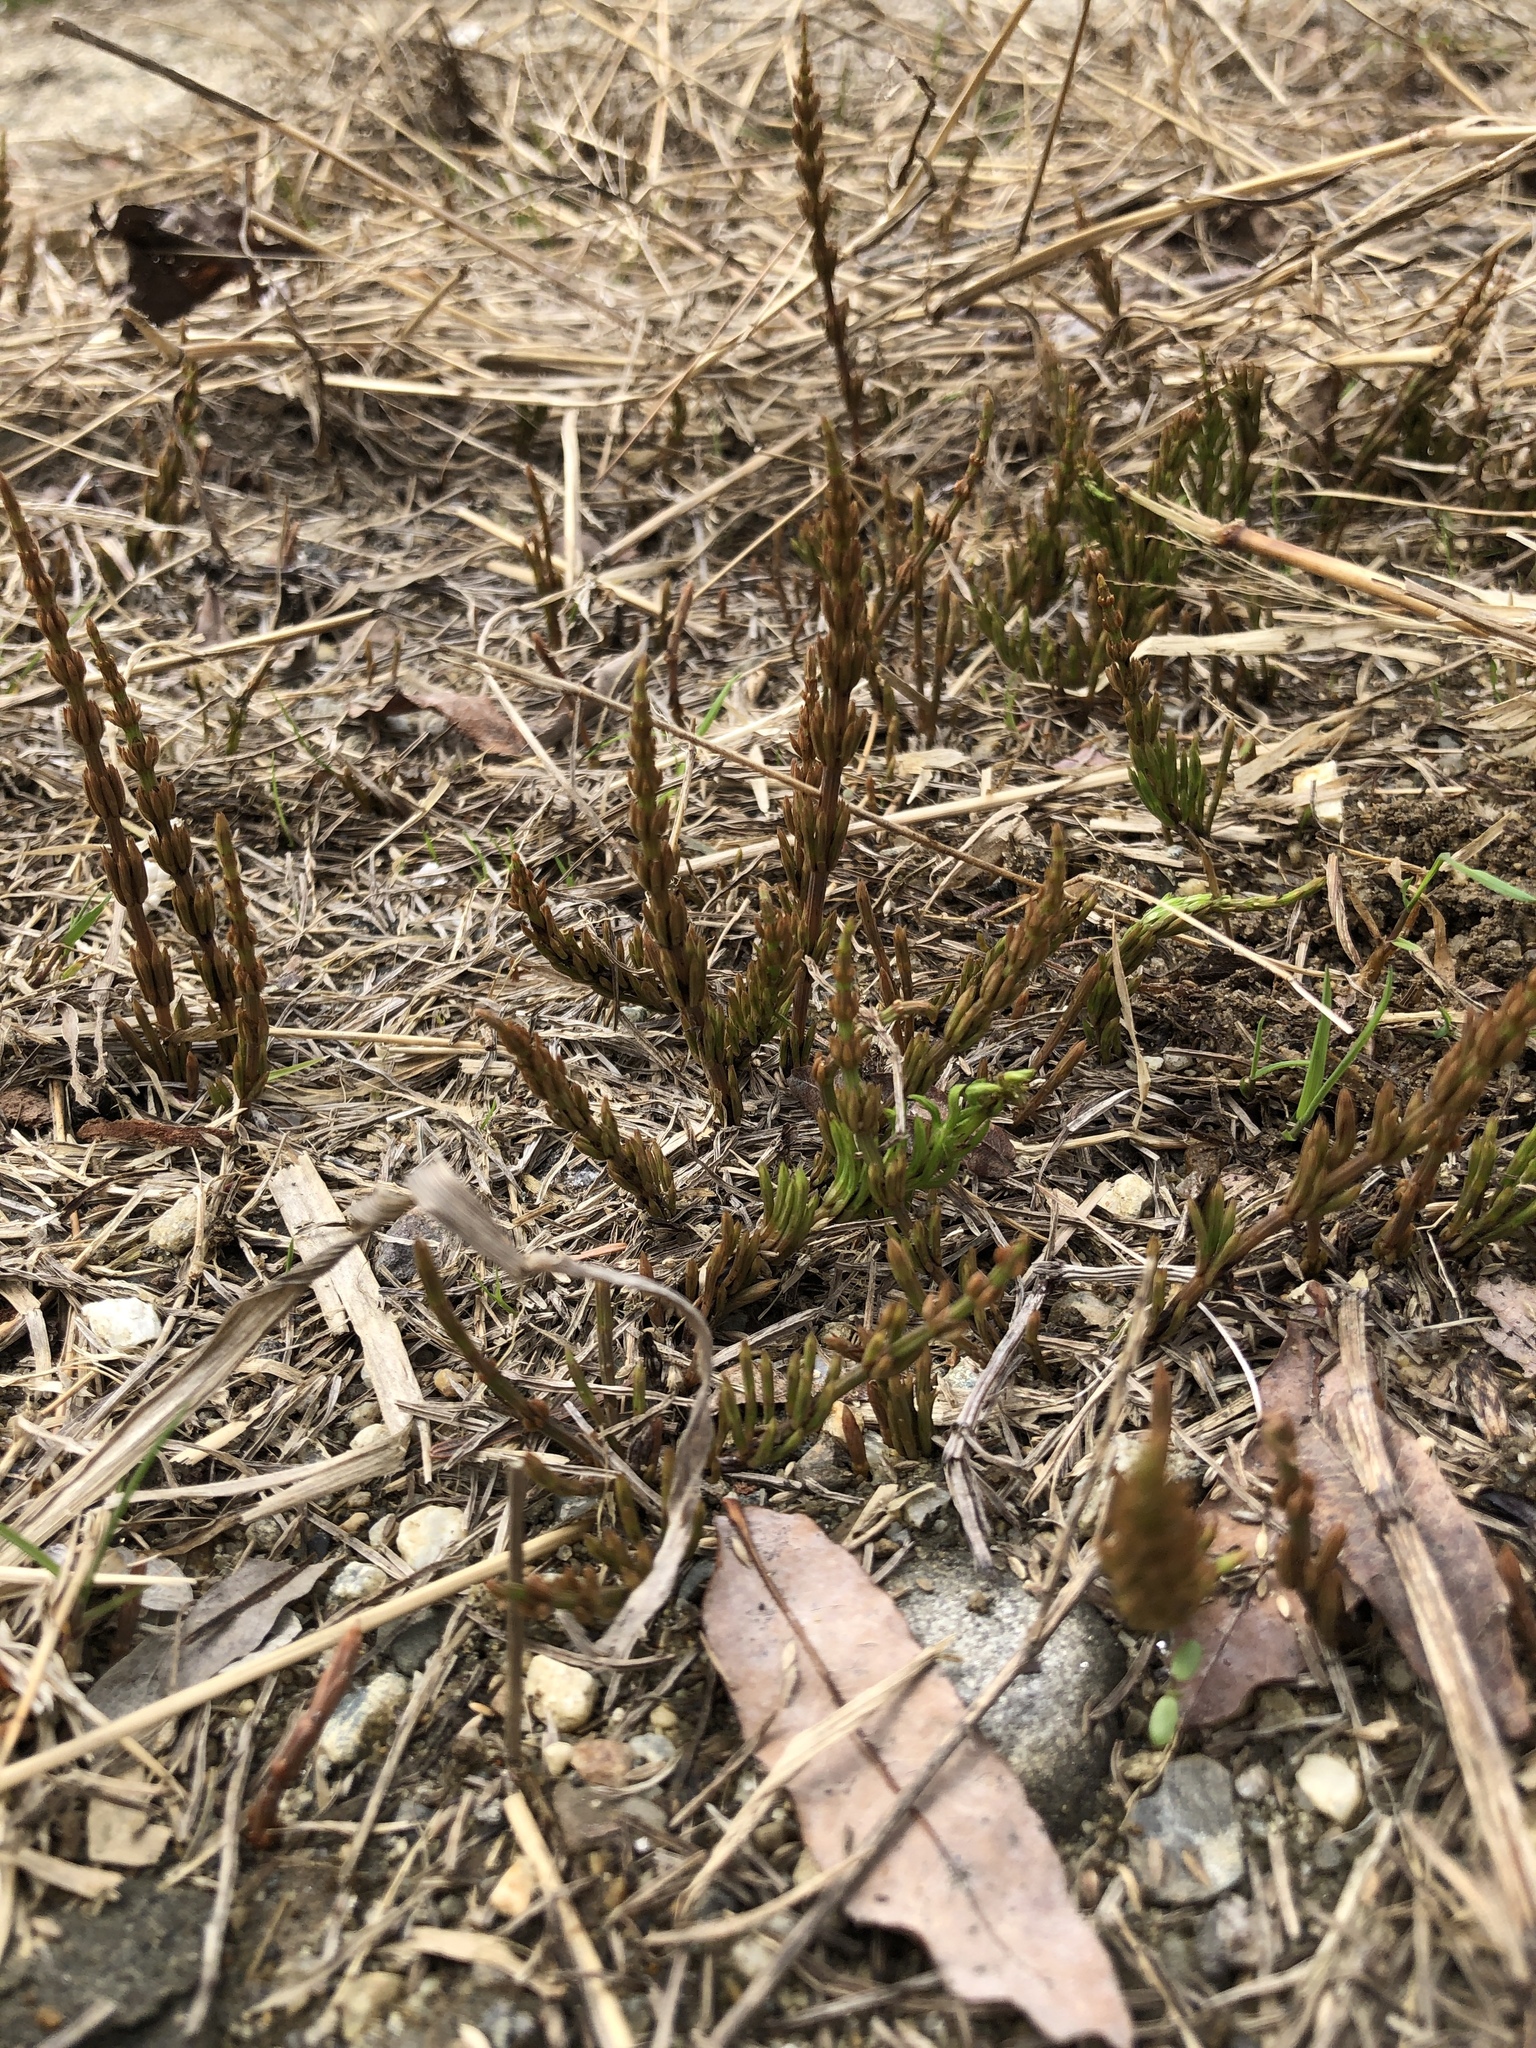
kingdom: Plantae
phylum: Tracheophyta
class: Polypodiopsida
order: Equisetales
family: Equisetaceae
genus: Equisetum
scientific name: Equisetum
